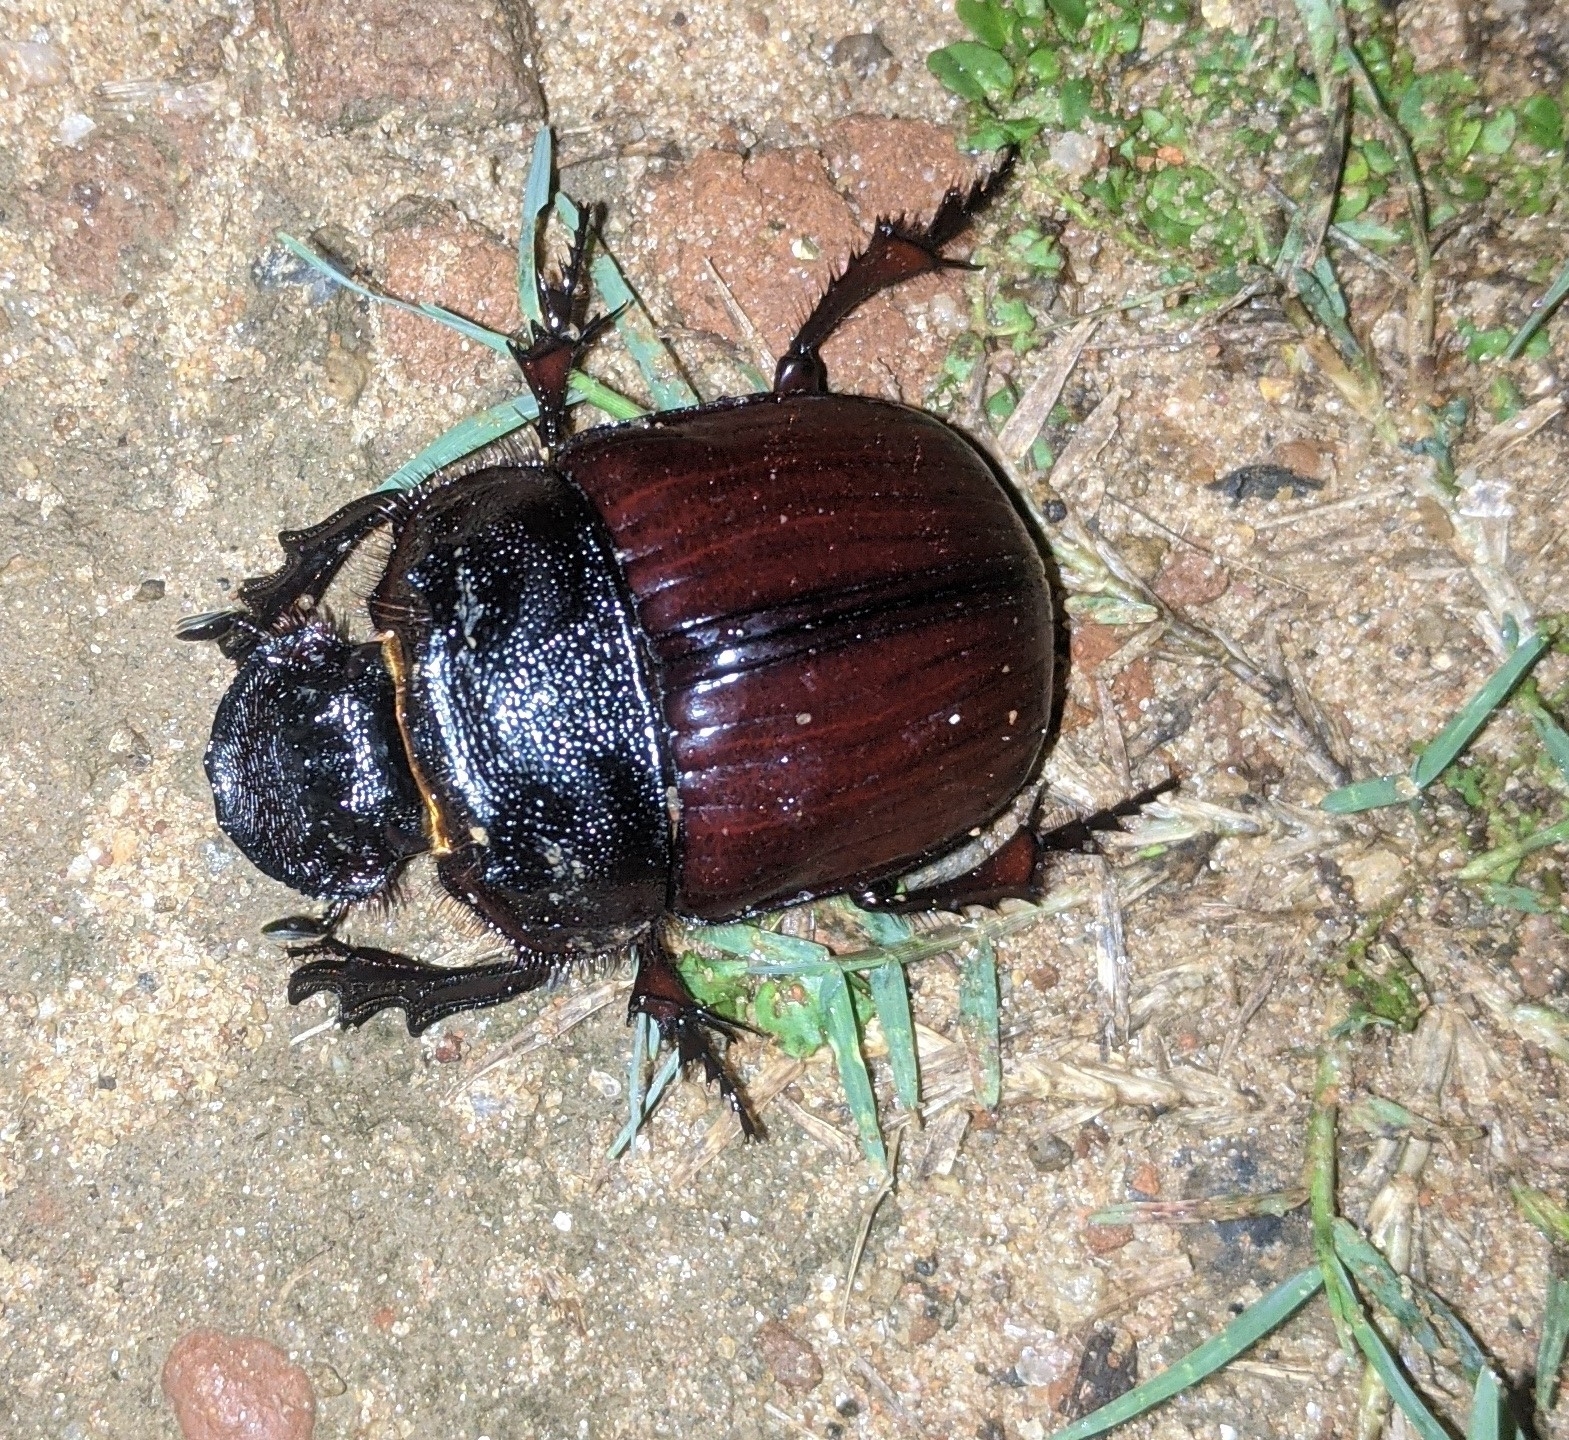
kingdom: Animalia
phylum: Arthropoda
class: Insecta
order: Coleoptera
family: Scarabaeidae
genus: Heliocopris
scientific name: Heliocopris ares
